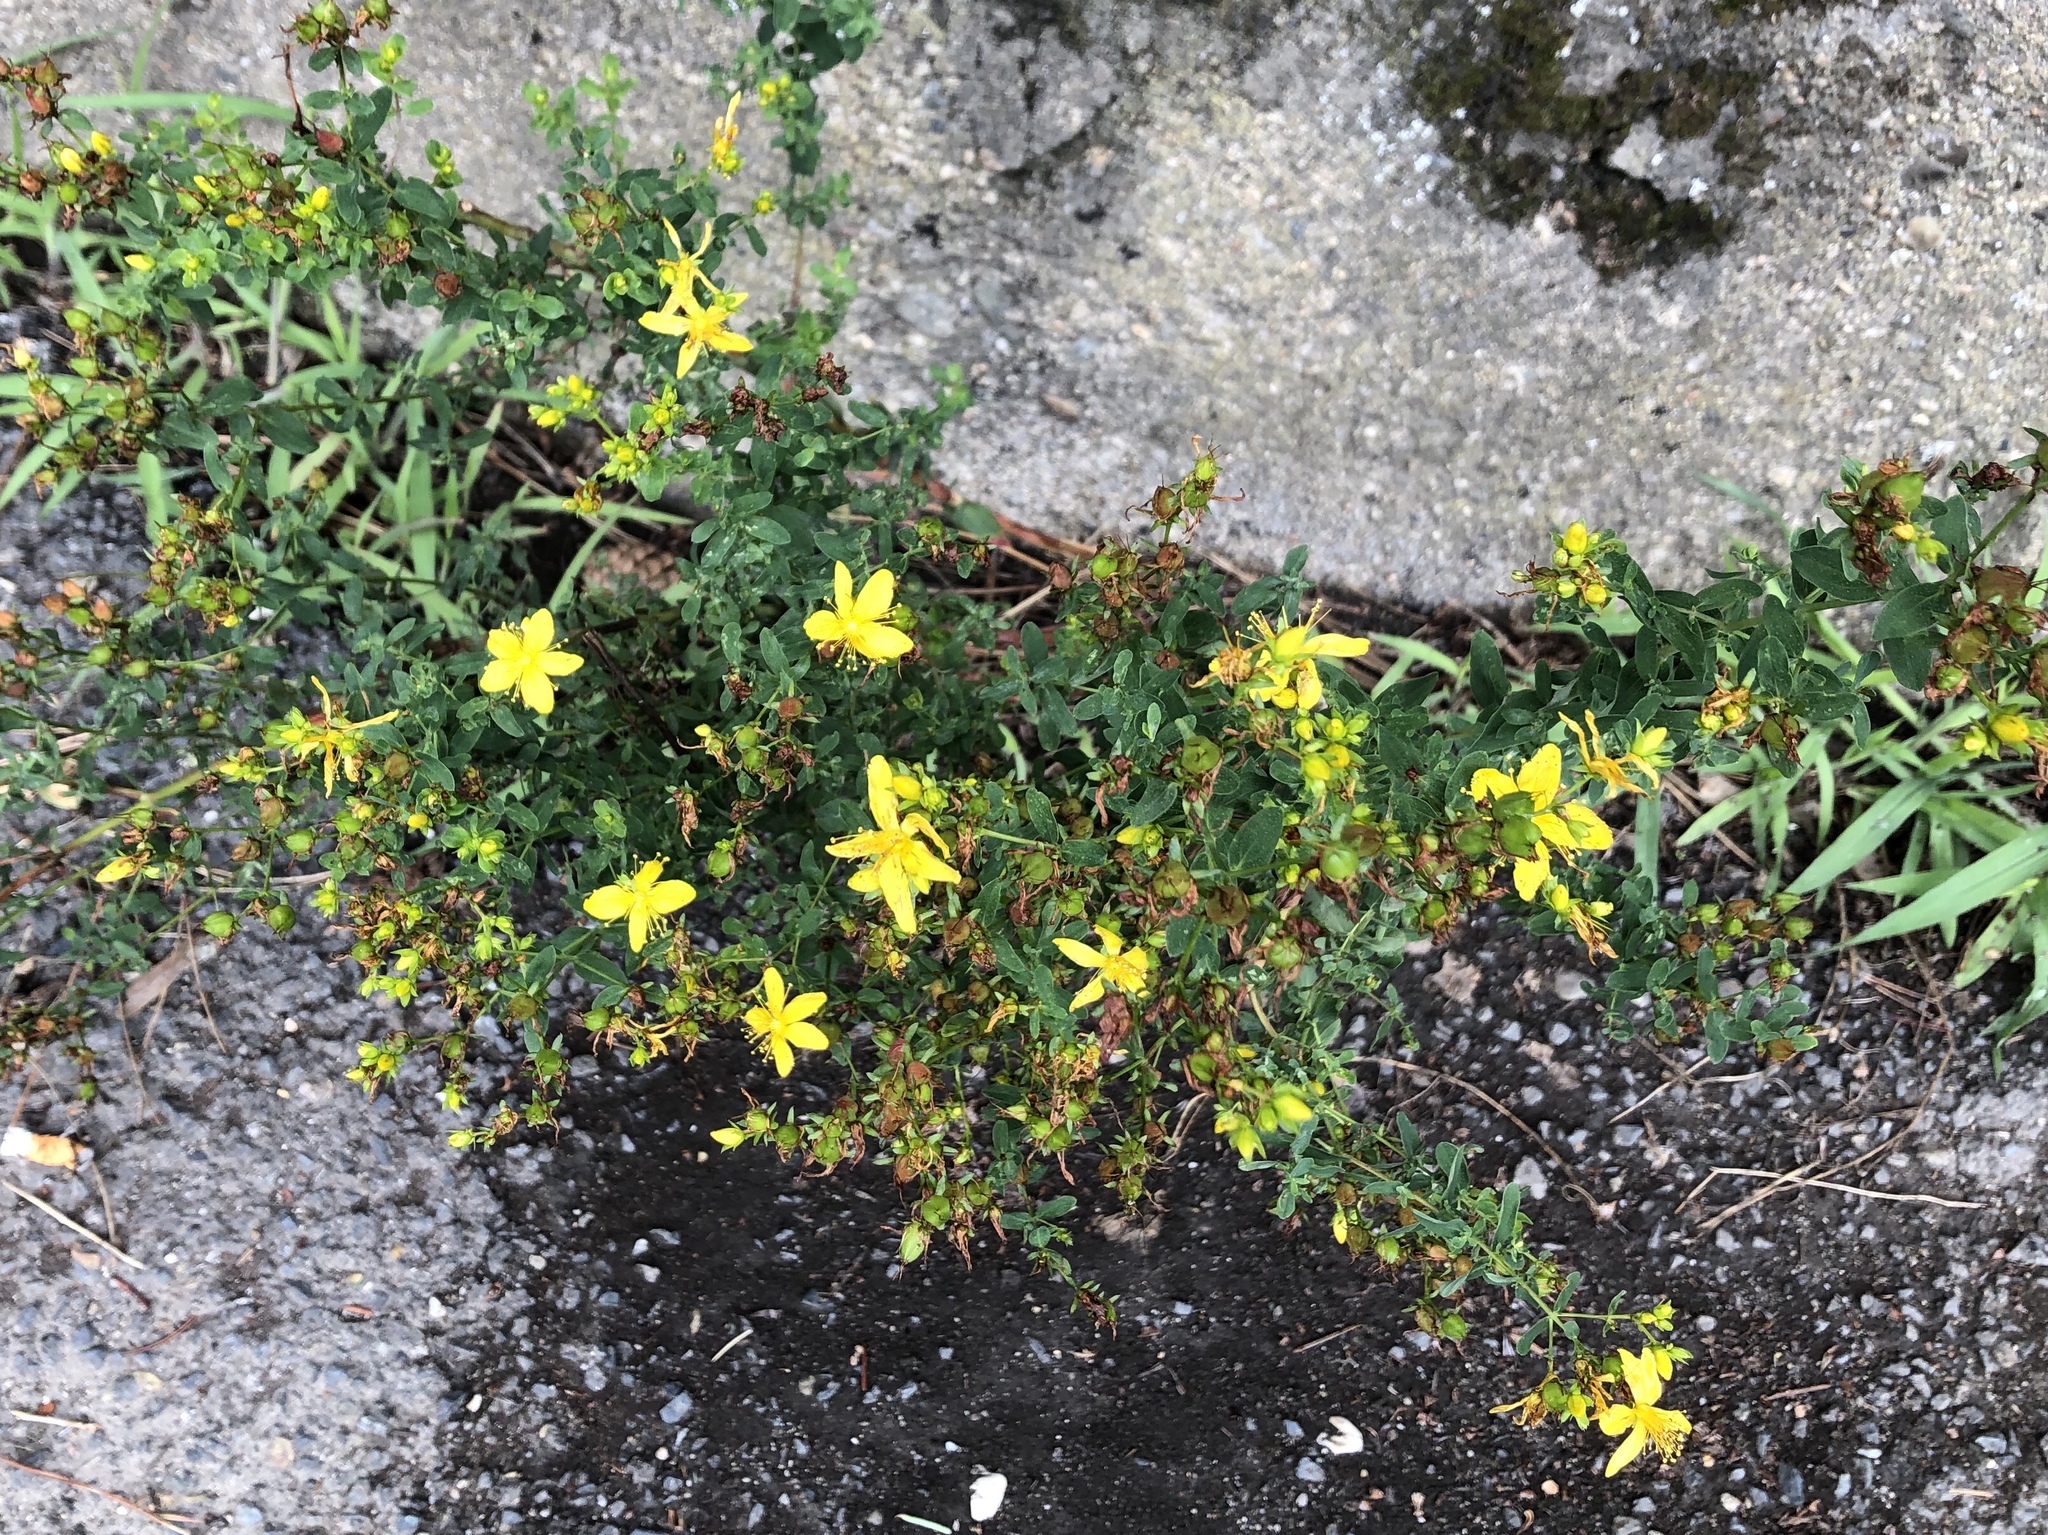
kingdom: Plantae
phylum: Tracheophyta
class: Magnoliopsida
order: Malpighiales
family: Hypericaceae
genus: Hypericum
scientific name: Hypericum perforatum
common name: Common st. johnswort
